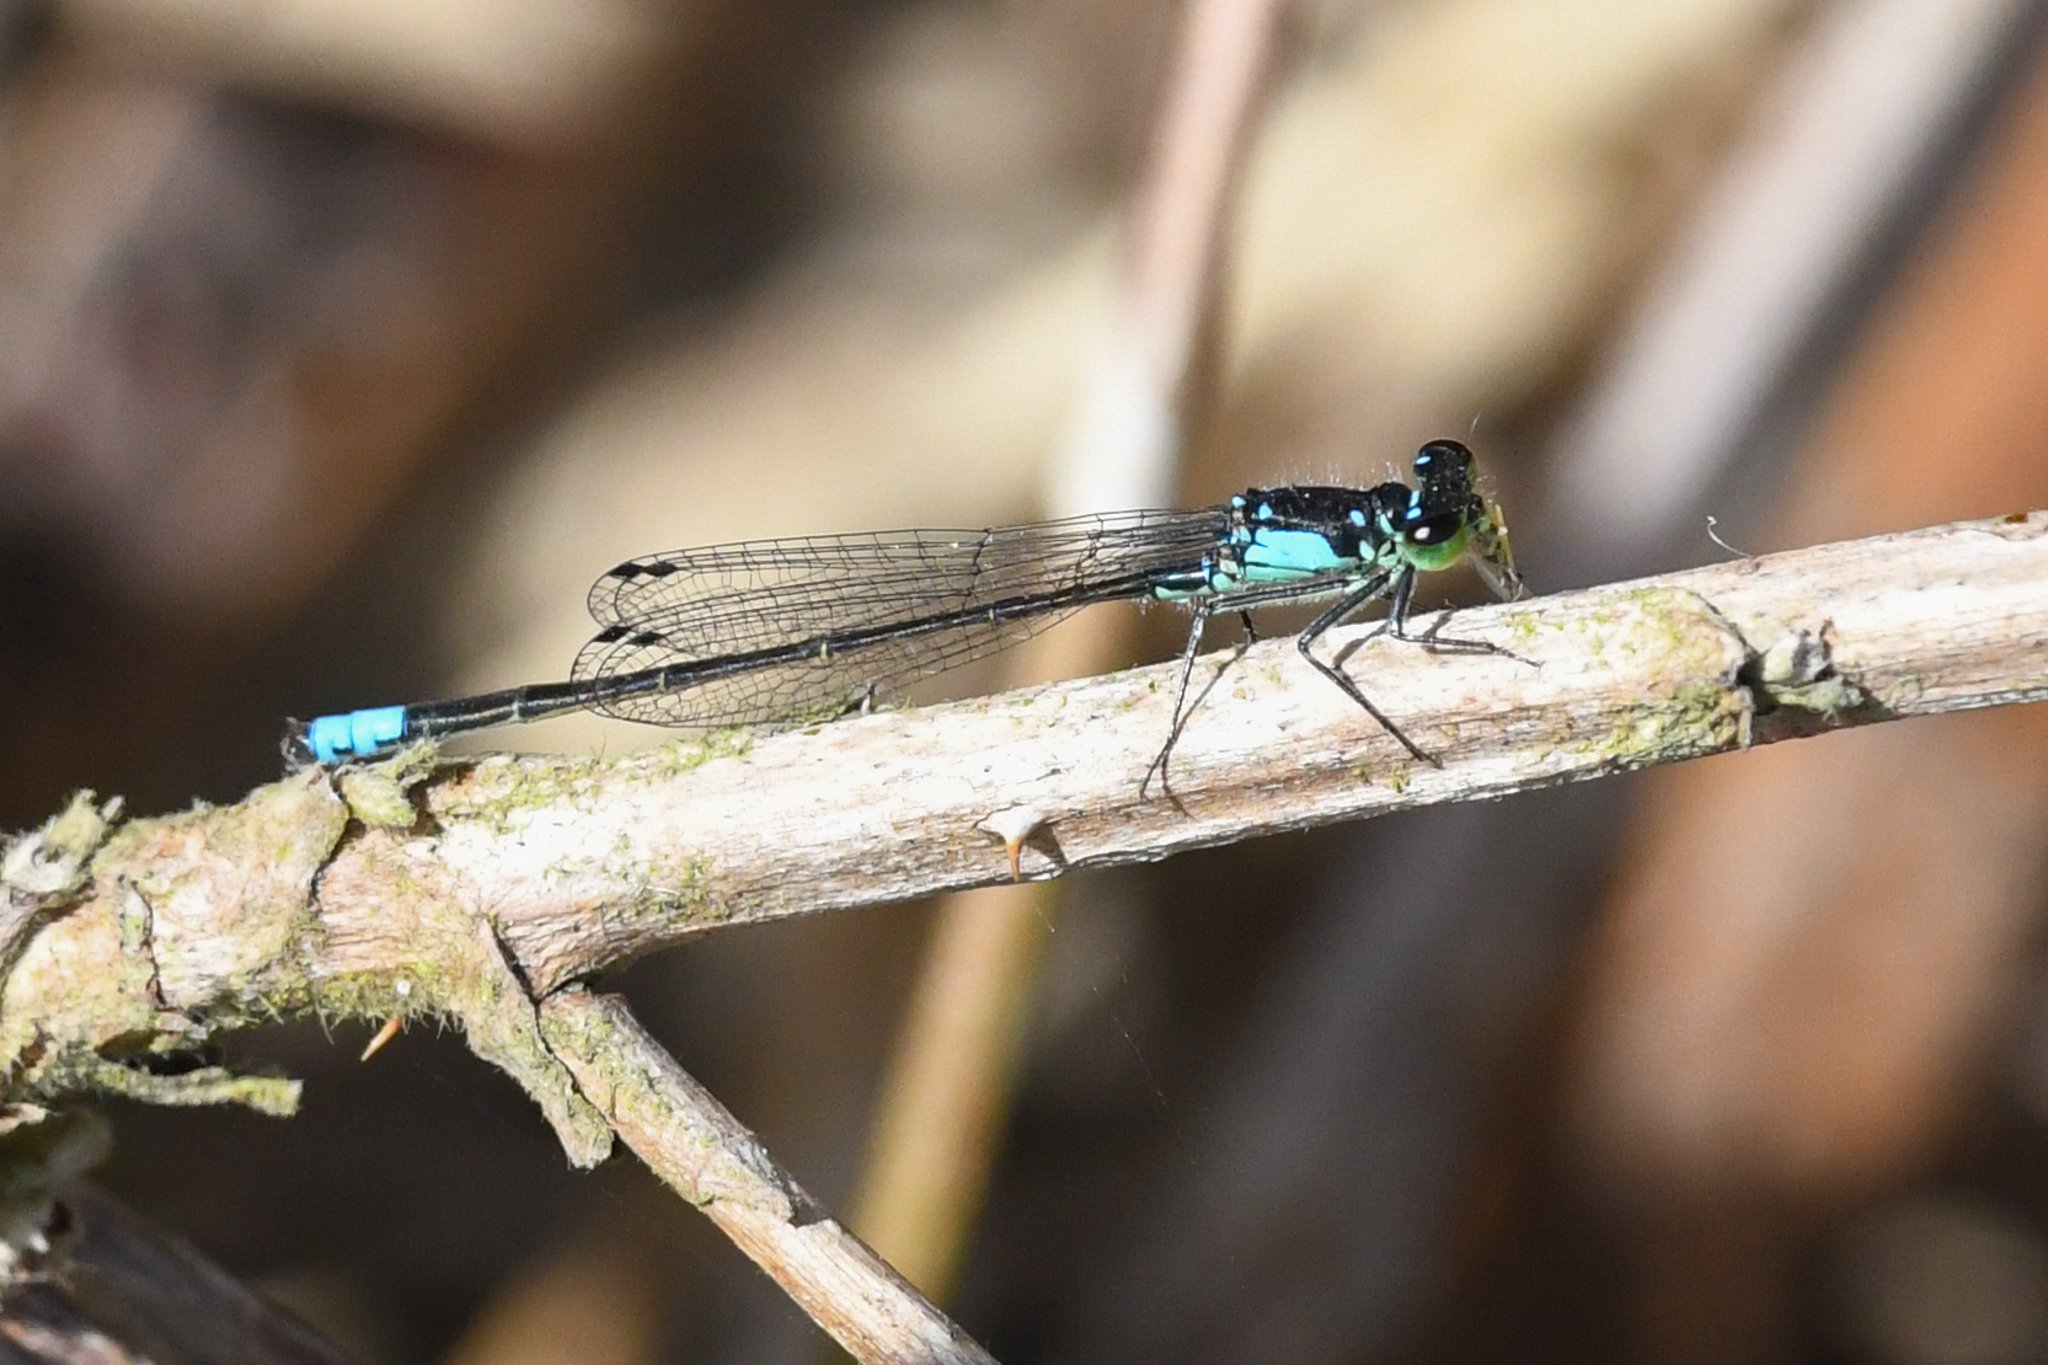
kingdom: Animalia
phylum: Arthropoda
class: Insecta
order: Odonata
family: Coenagrionidae
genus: Ischnura
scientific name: Ischnura cervula
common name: Pacific forktail
